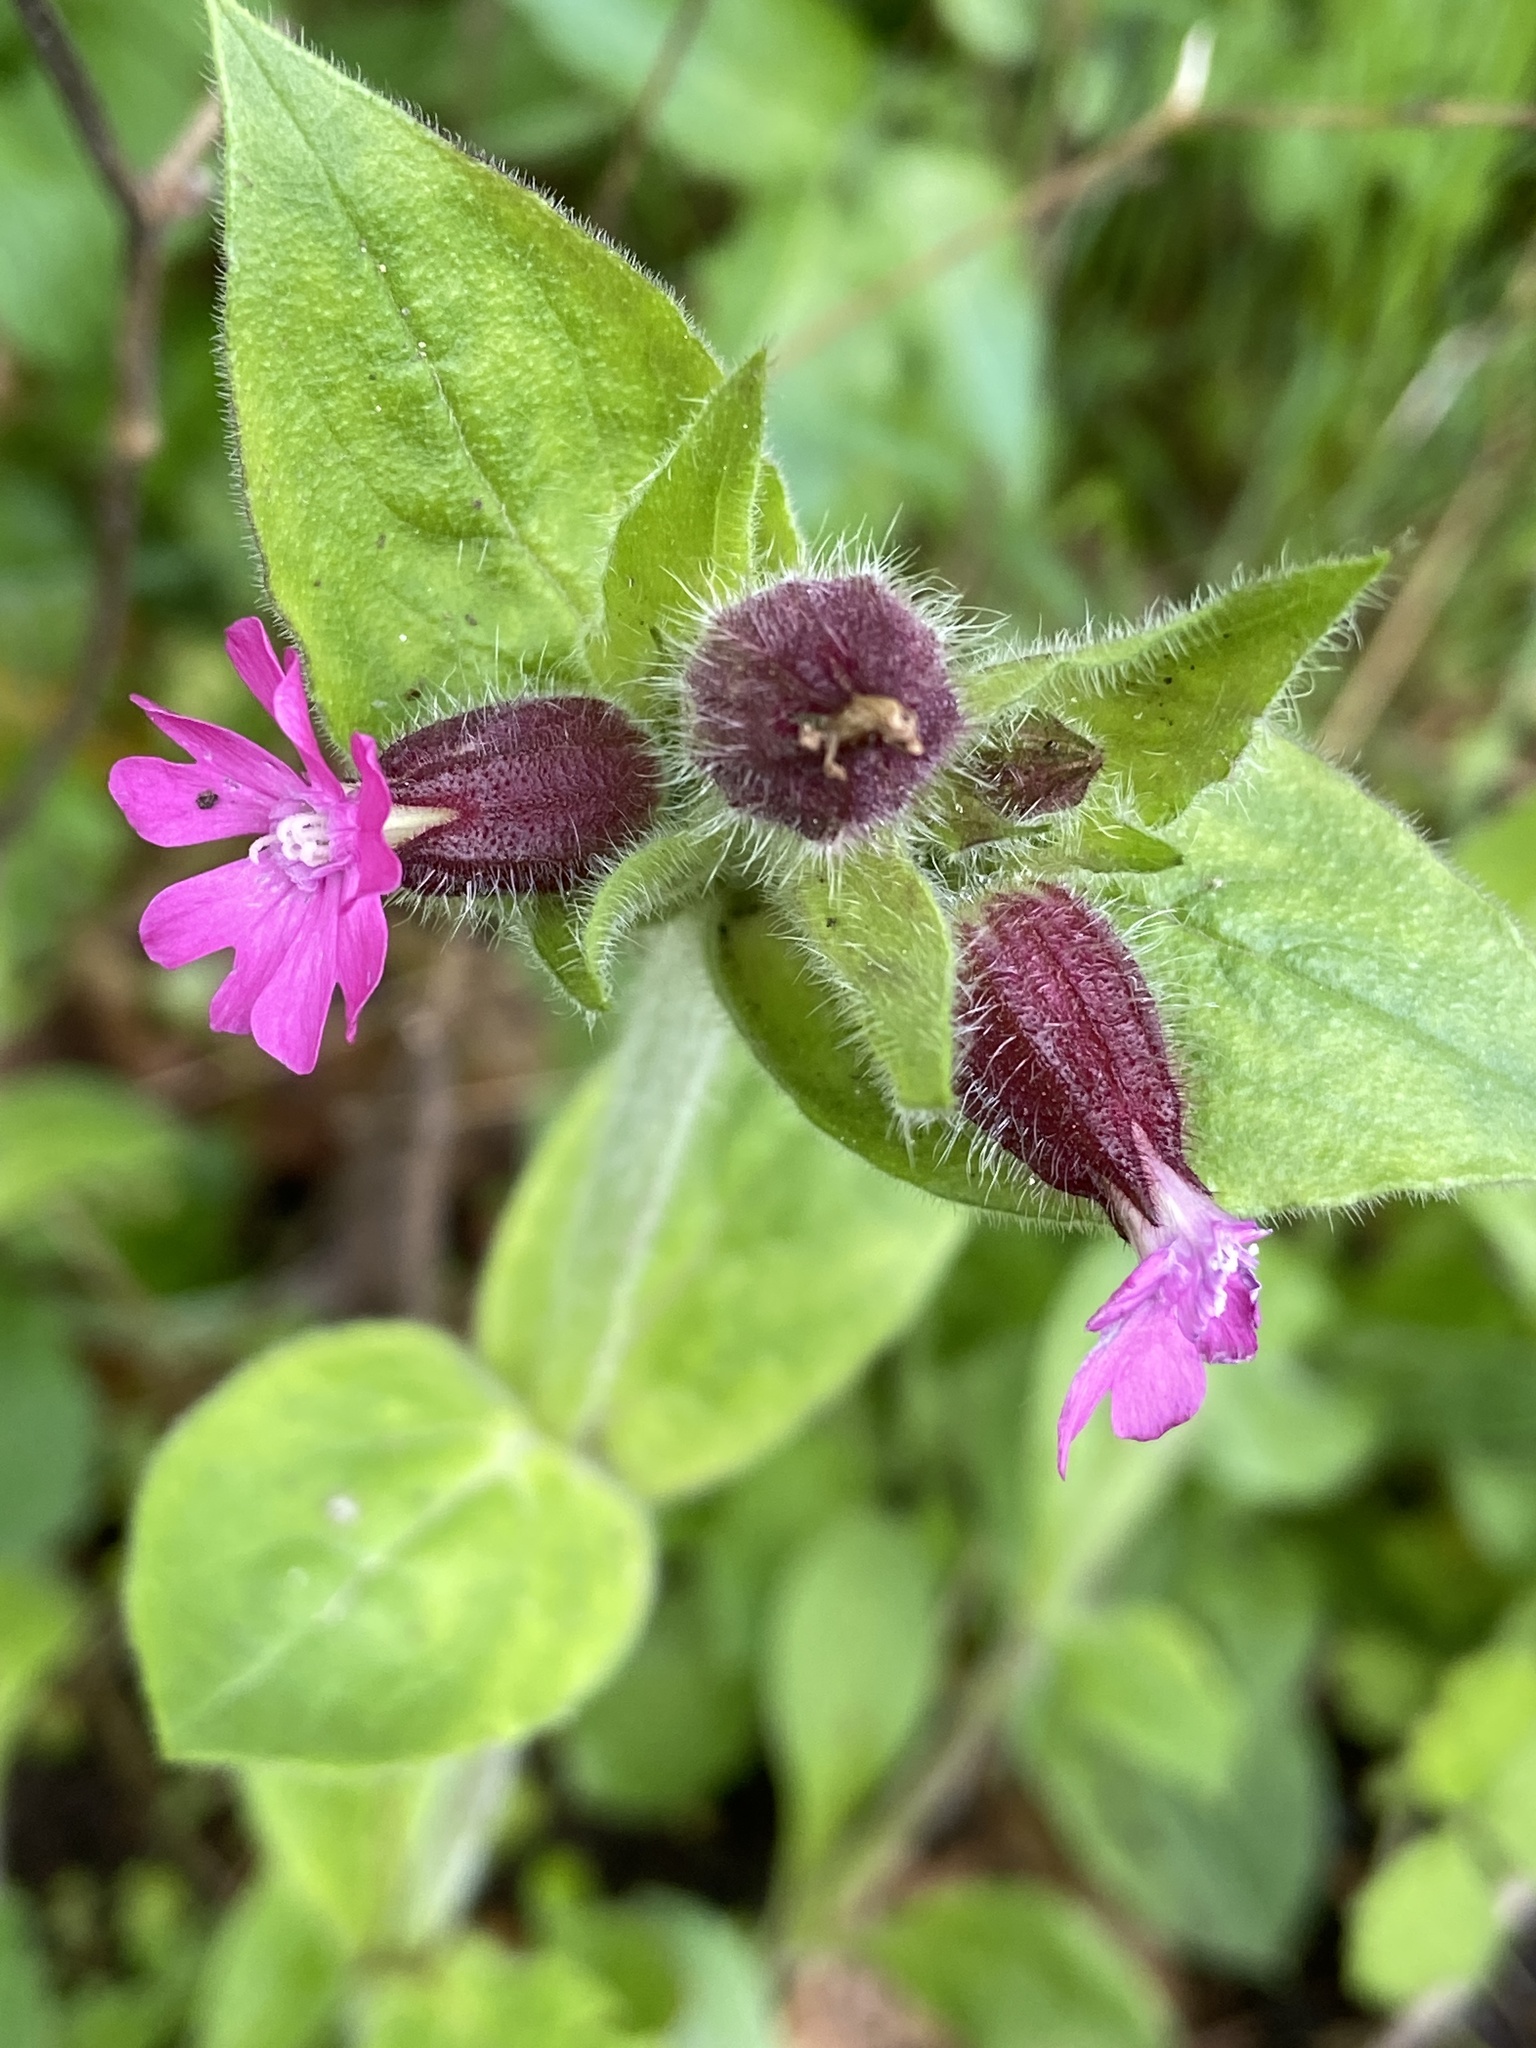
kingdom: Plantae
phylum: Tracheophyta
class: Magnoliopsida
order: Caryophyllales
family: Caryophyllaceae
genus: Silene
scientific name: Silene dioica
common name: Red campion
